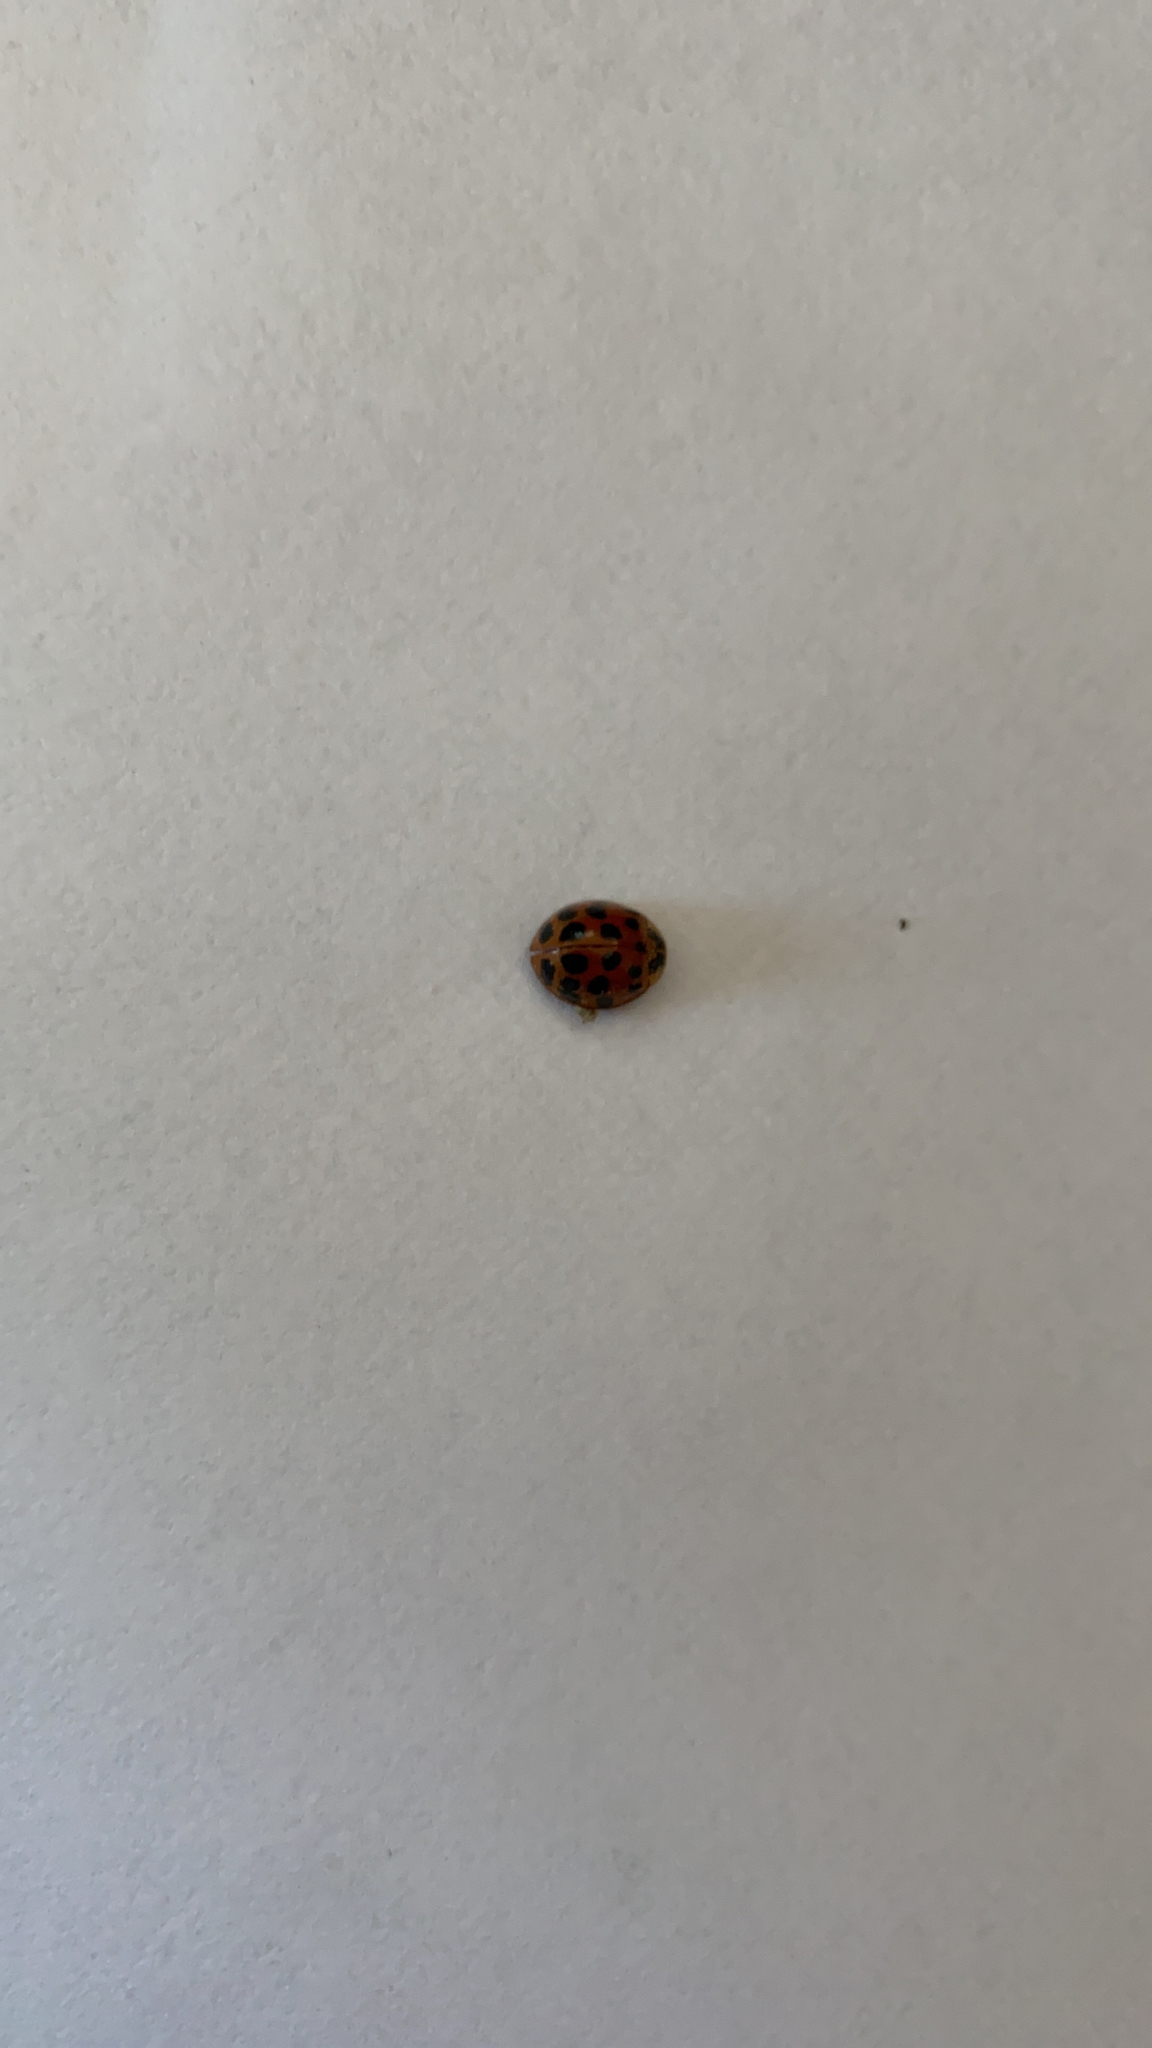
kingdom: Animalia
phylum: Arthropoda
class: Insecta
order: Coleoptera
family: Coccinellidae
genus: Harmonia
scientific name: Harmonia axyridis
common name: Harlequin ladybird
